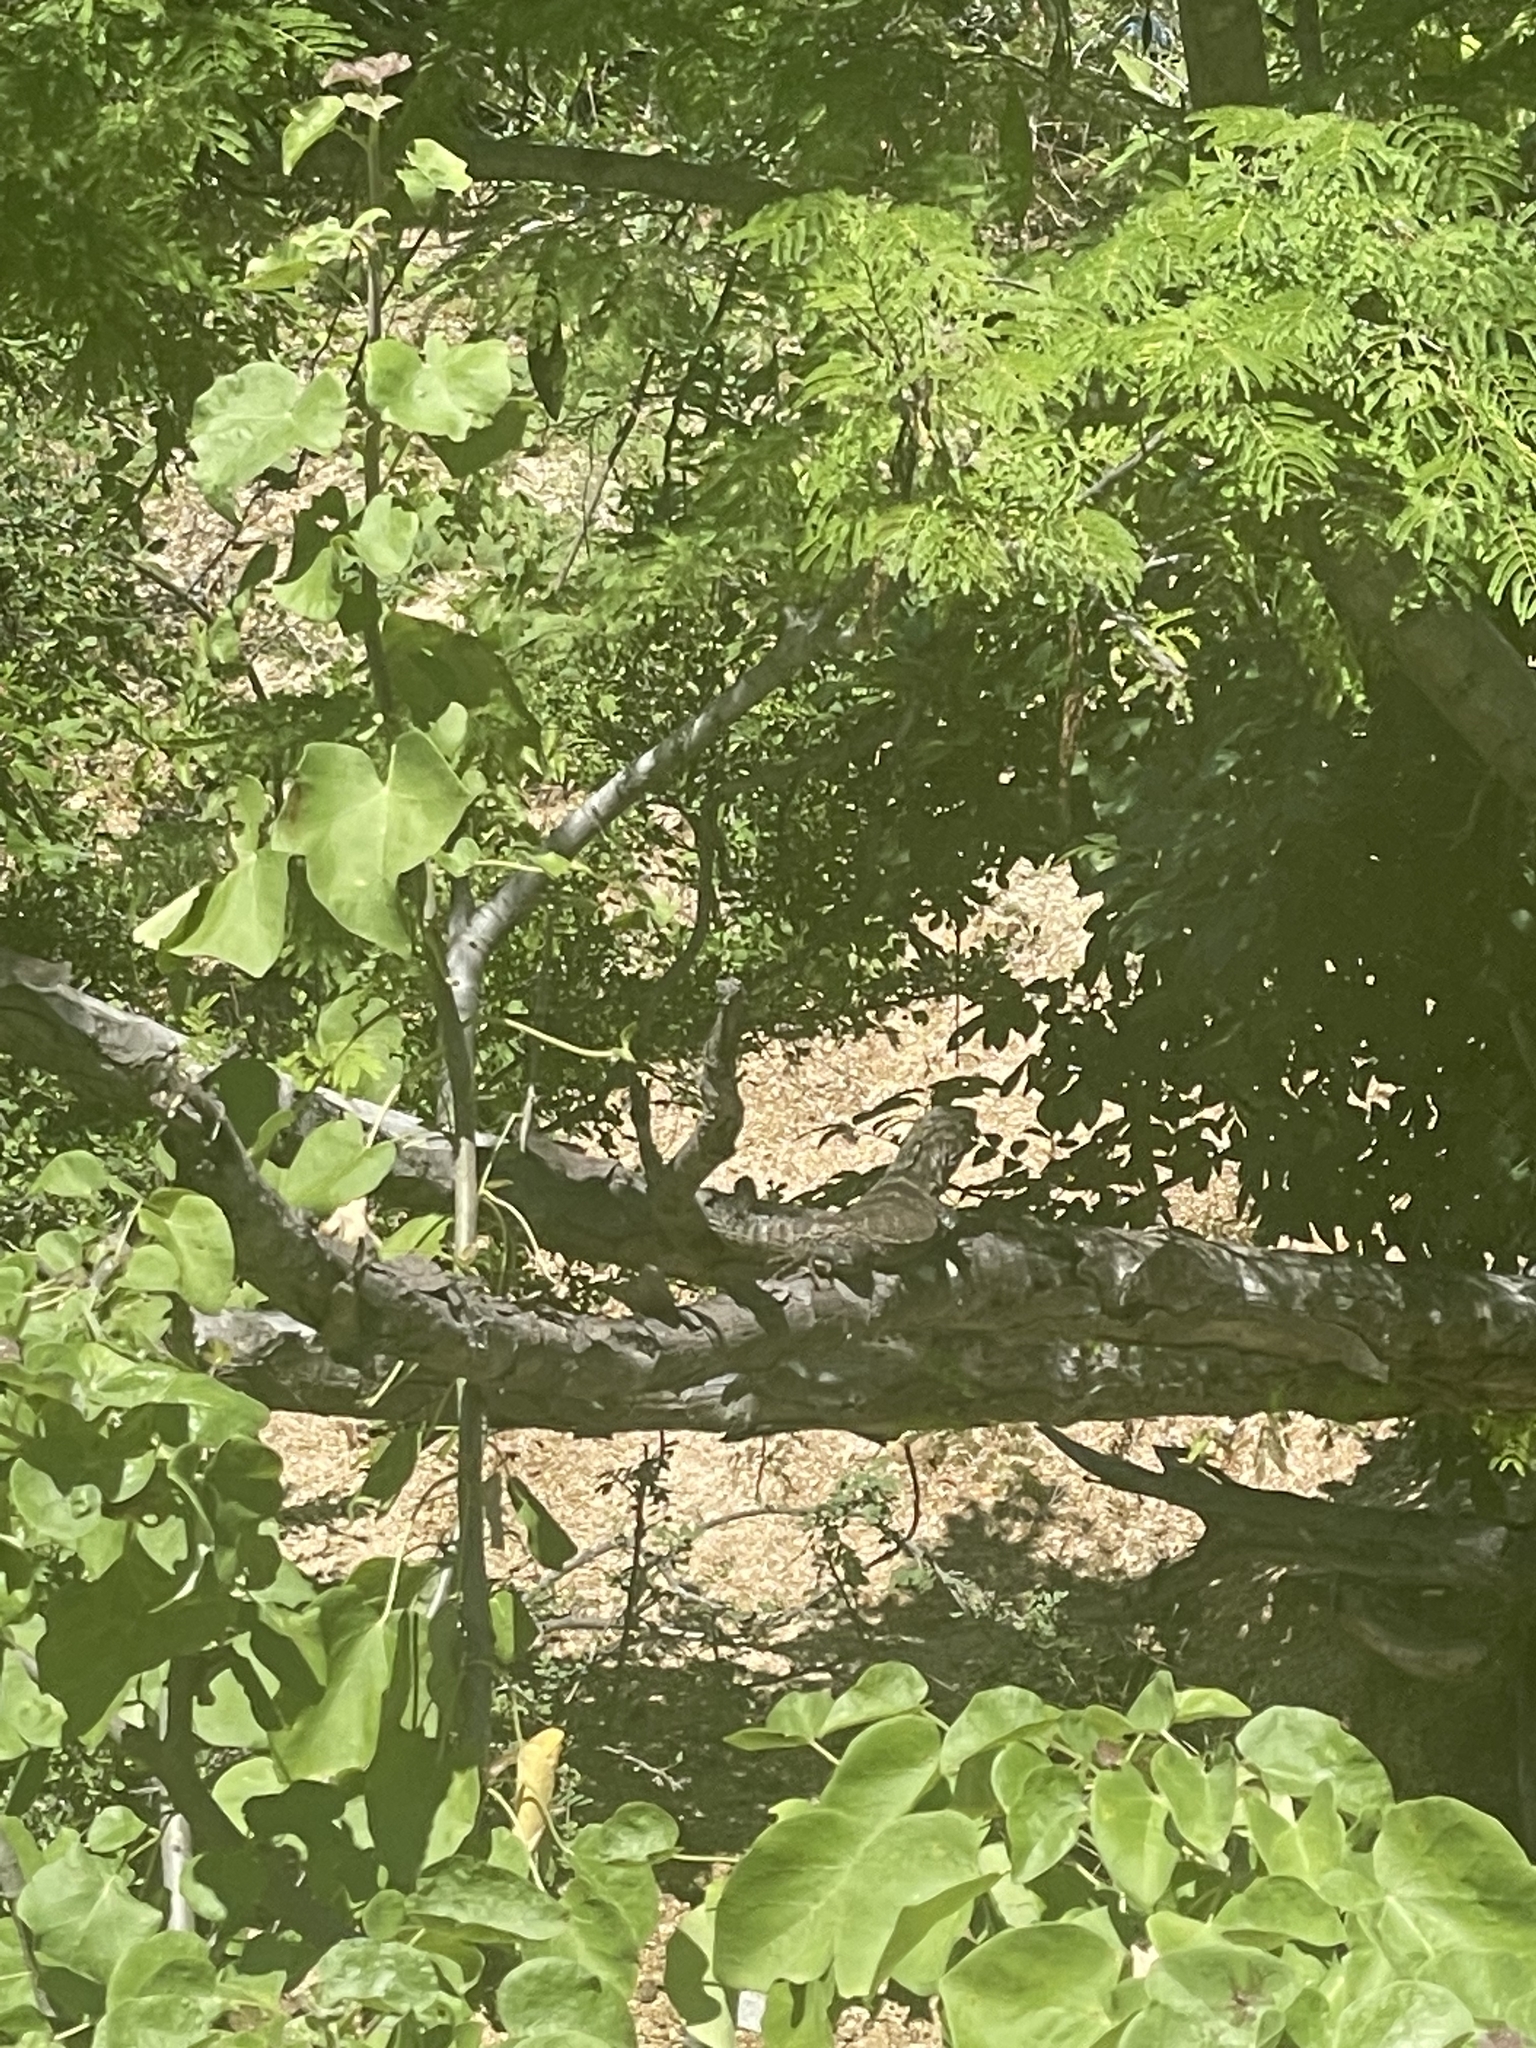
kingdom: Animalia
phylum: Chordata
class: Squamata
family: Iguanidae
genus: Ctenosaura
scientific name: Ctenosaura hemilopha
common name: Baja california spiny- tailed iguana
